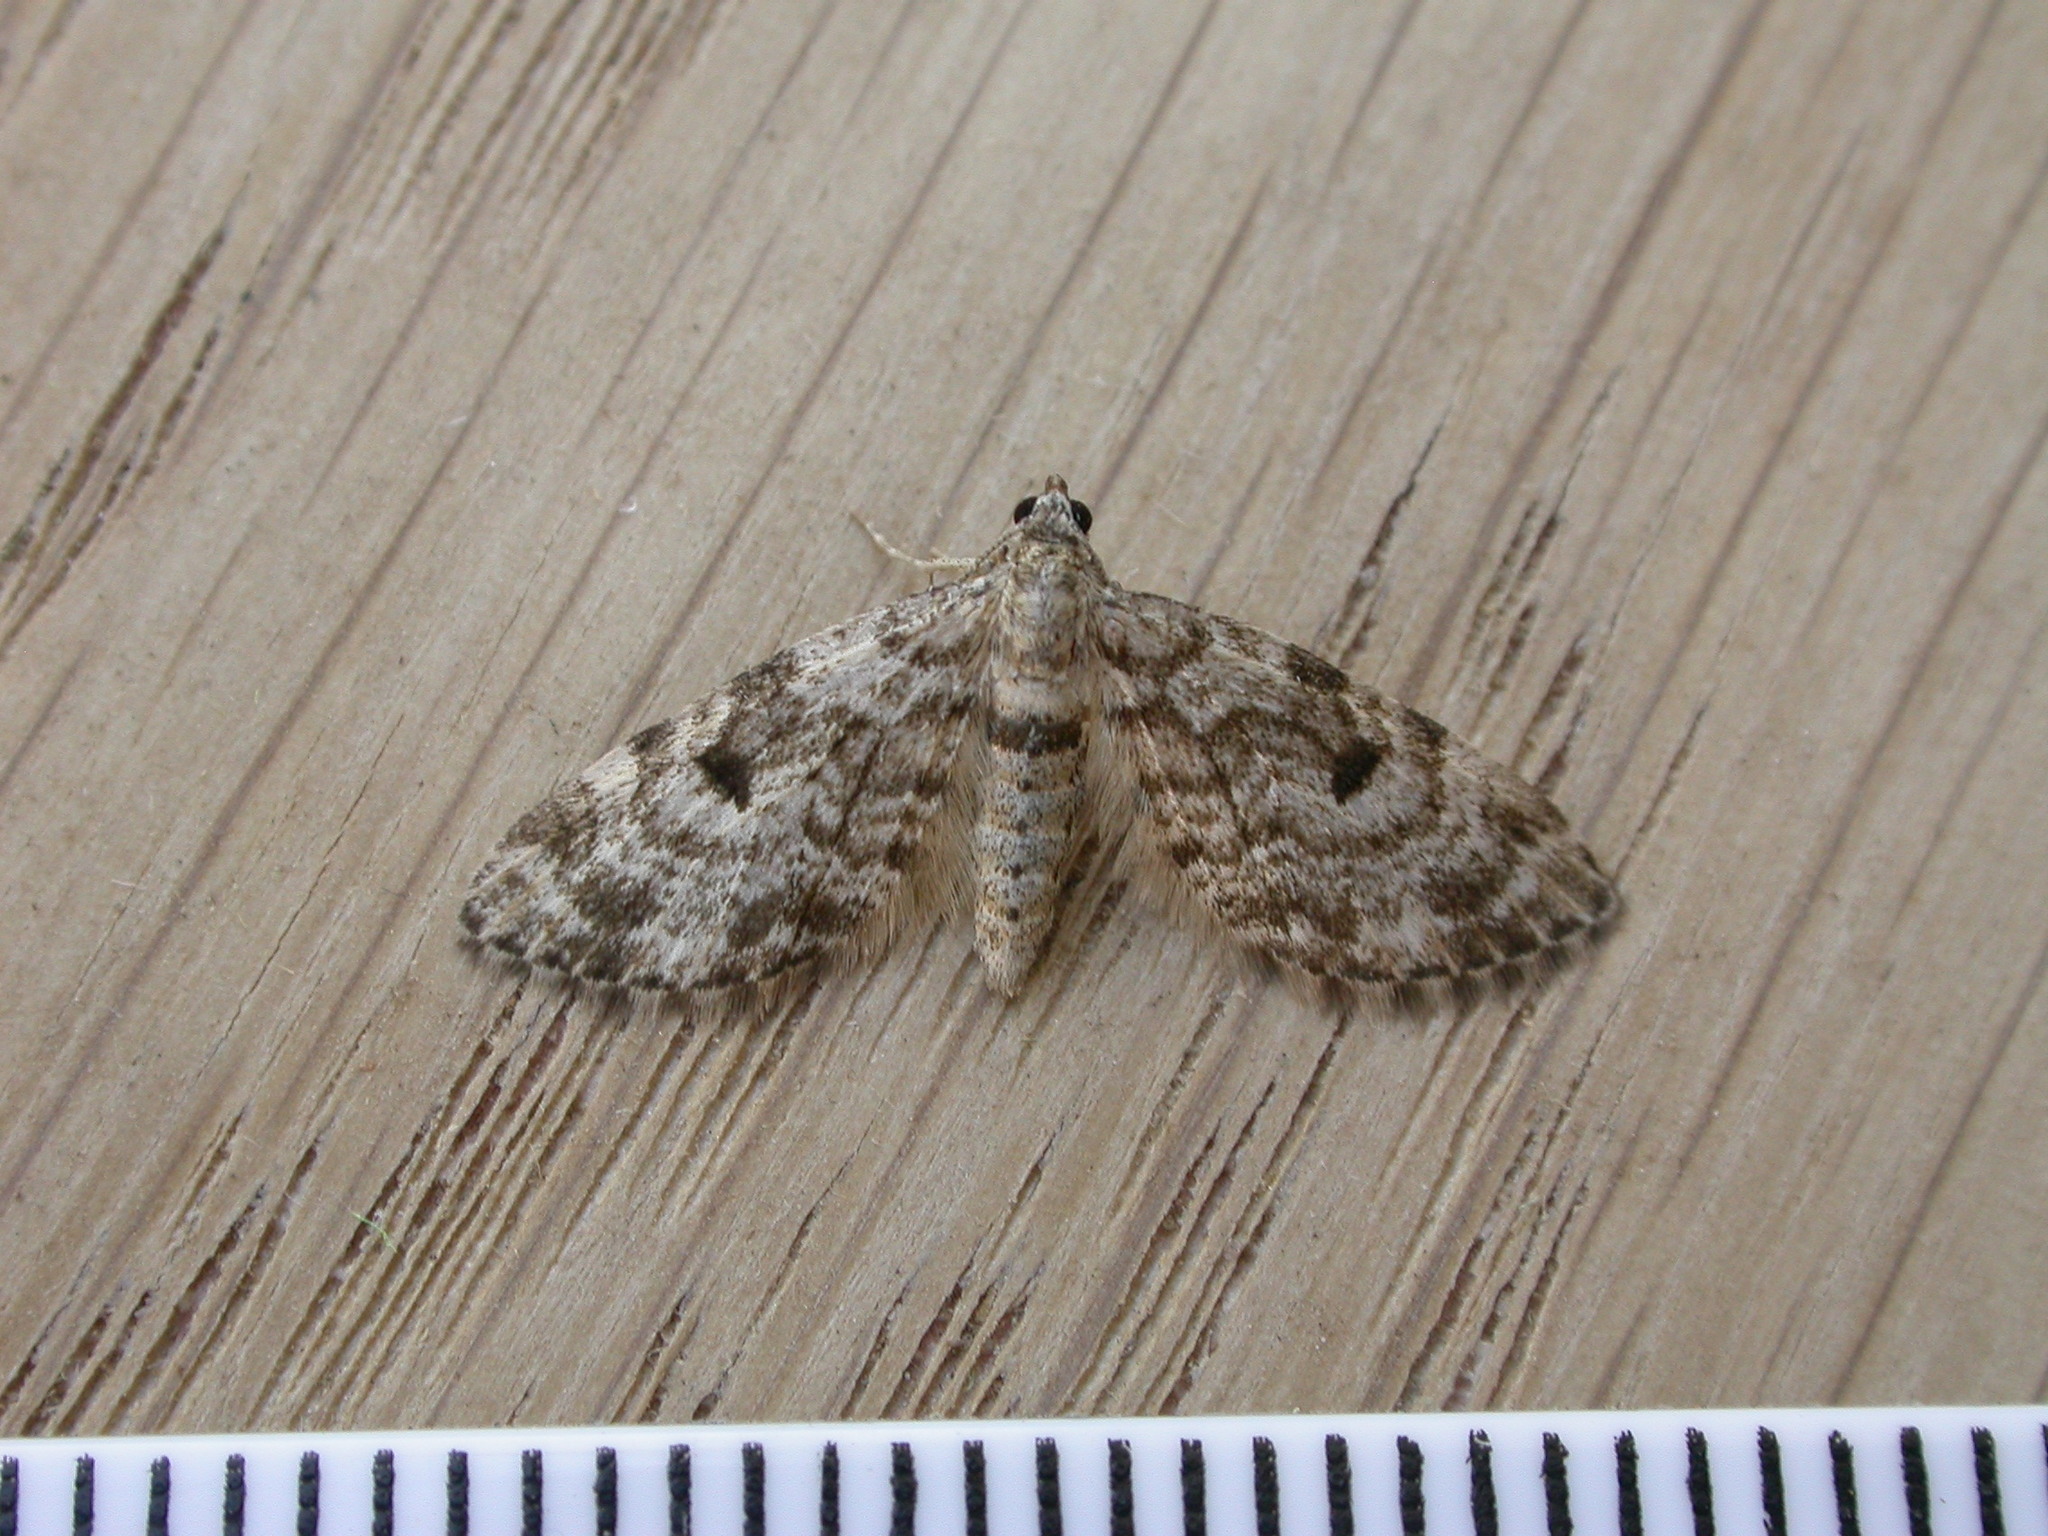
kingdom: Animalia
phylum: Arthropoda
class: Insecta
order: Lepidoptera
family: Geometridae
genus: Eupithecia
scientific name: Eupithecia tantillaria
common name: Dwarf pug
